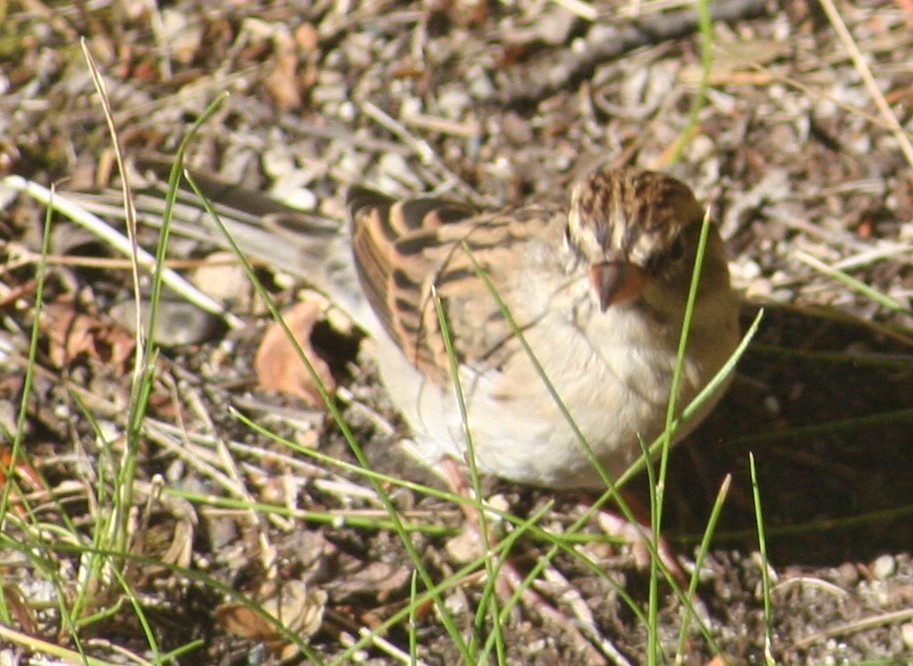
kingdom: Animalia
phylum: Chordata
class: Aves
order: Passeriformes
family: Passerellidae
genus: Spizella
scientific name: Spizella passerina
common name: Chipping sparrow
